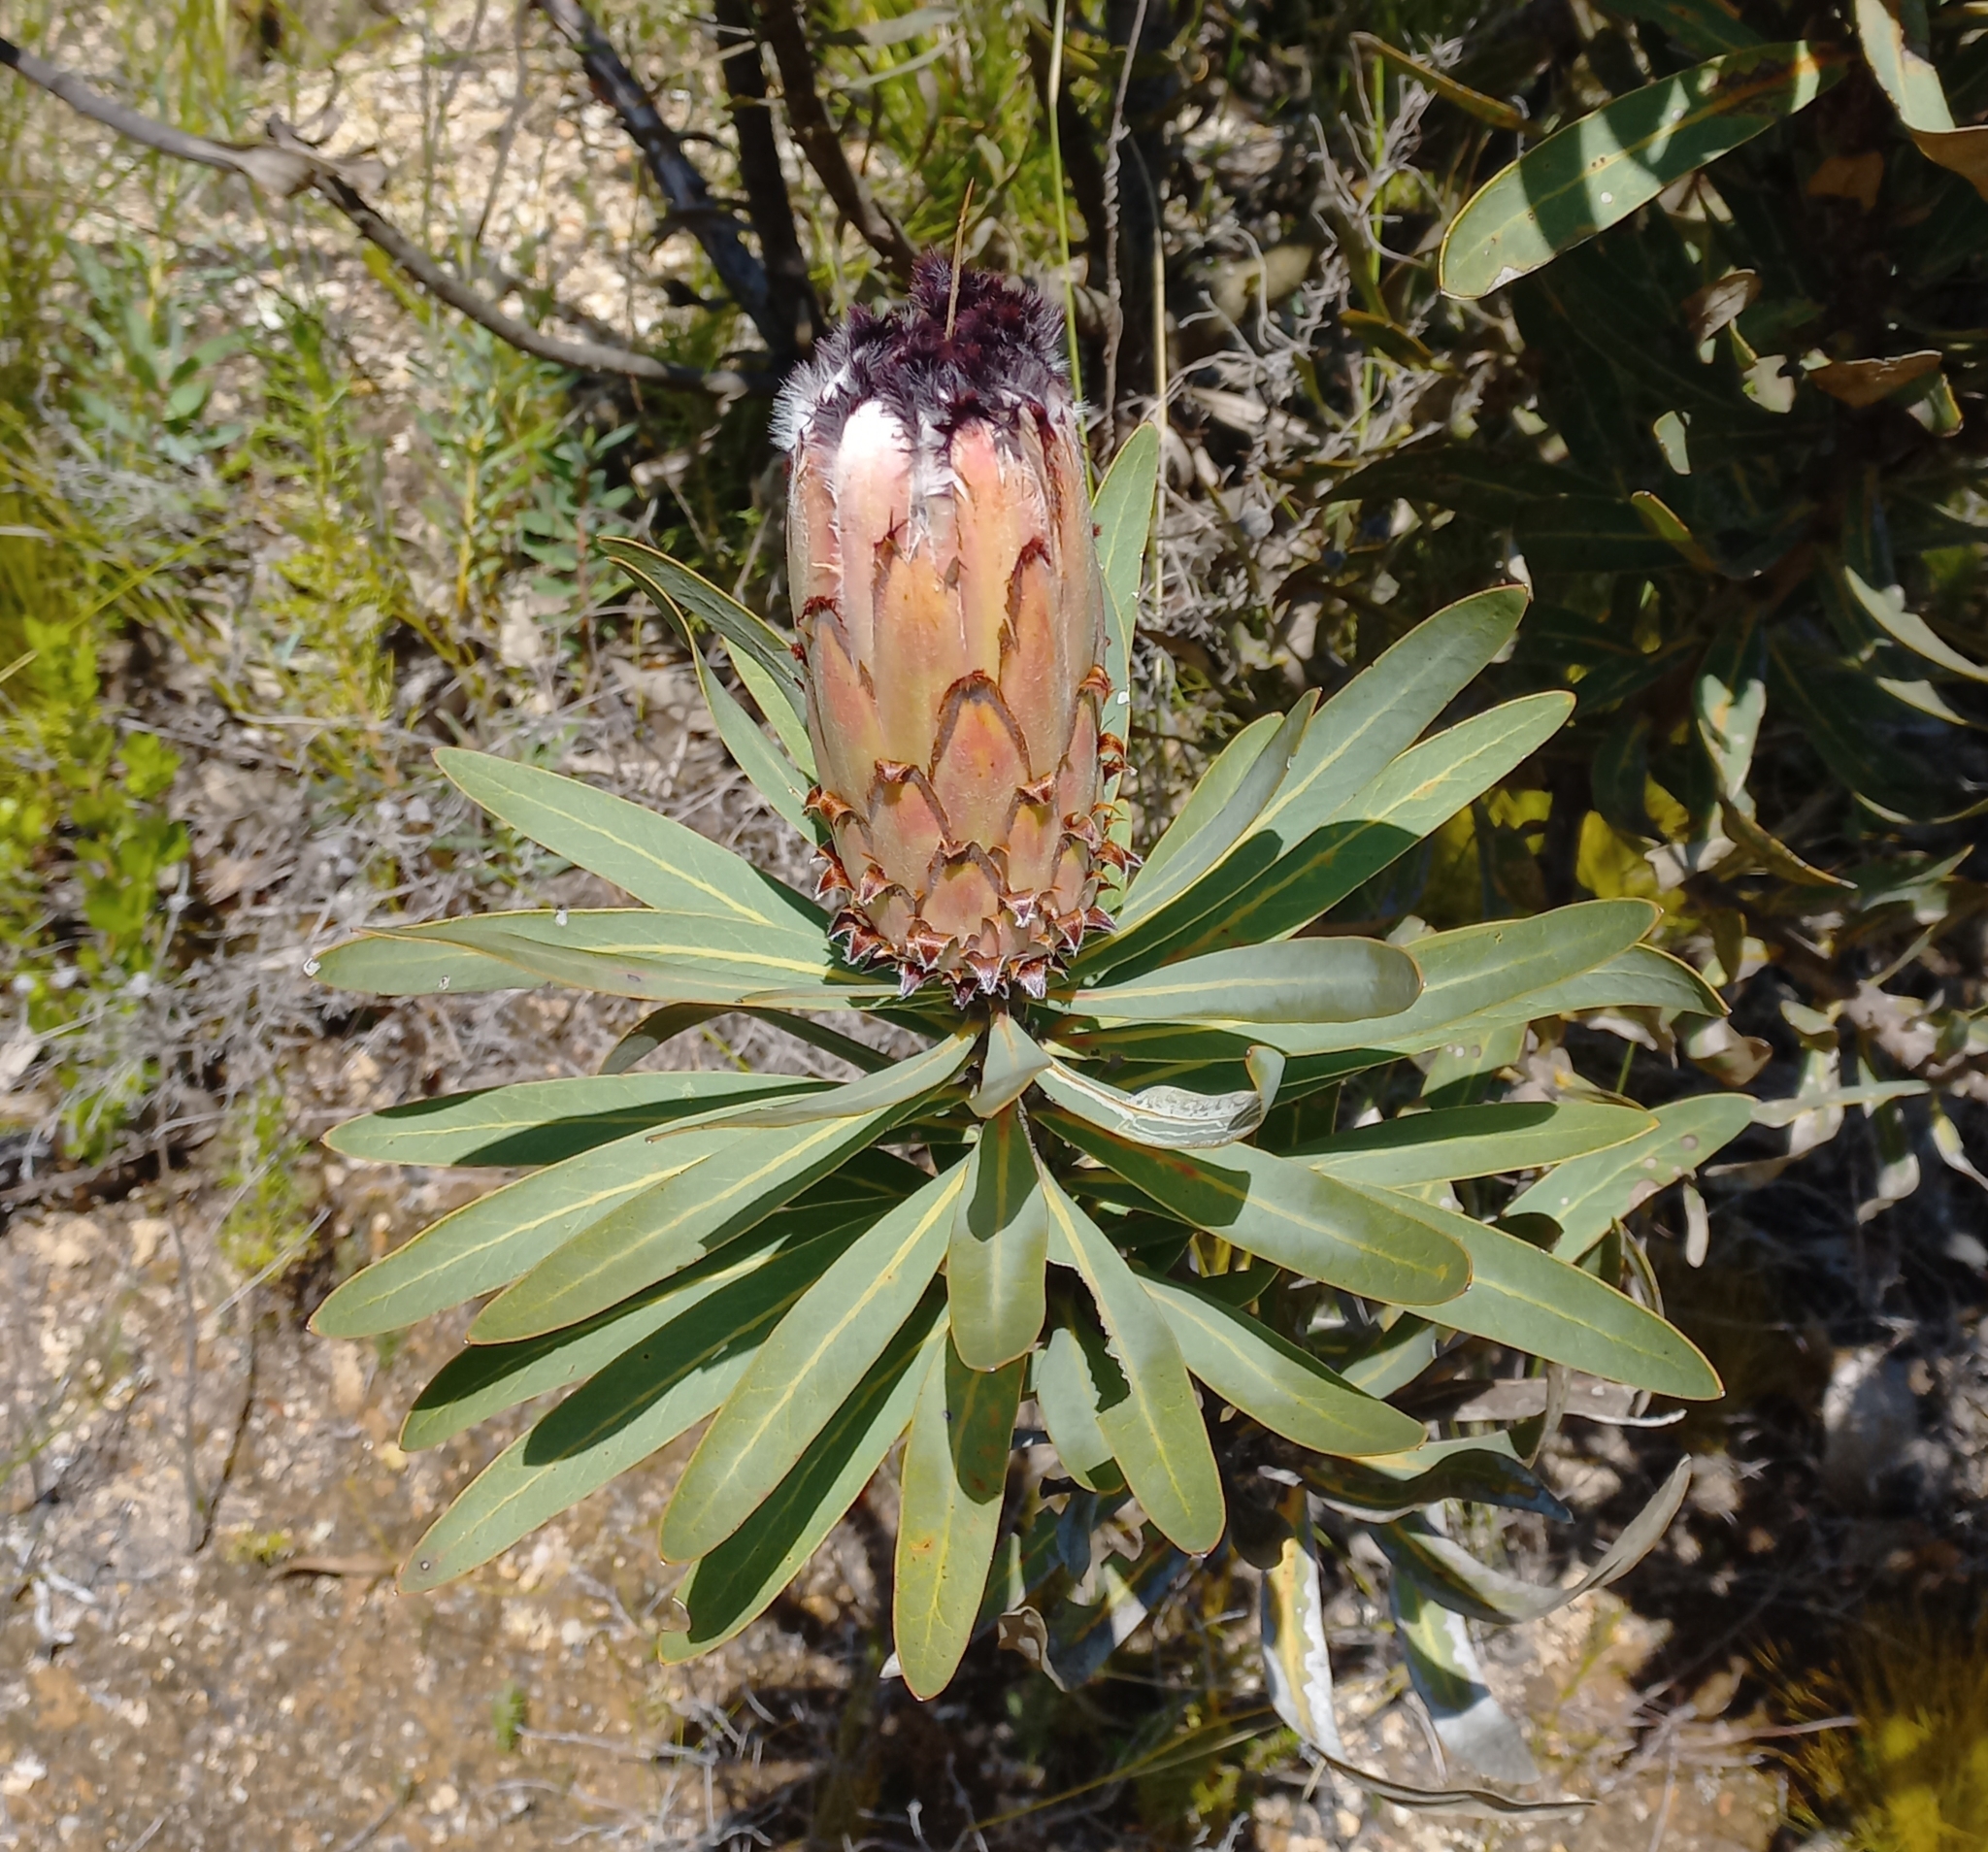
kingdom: Plantae
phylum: Tracheophyta
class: Magnoliopsida
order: Proteales
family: Proteaceae
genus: Protea
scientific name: Protea laurifolia
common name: Grey-leaf sugarbsh
